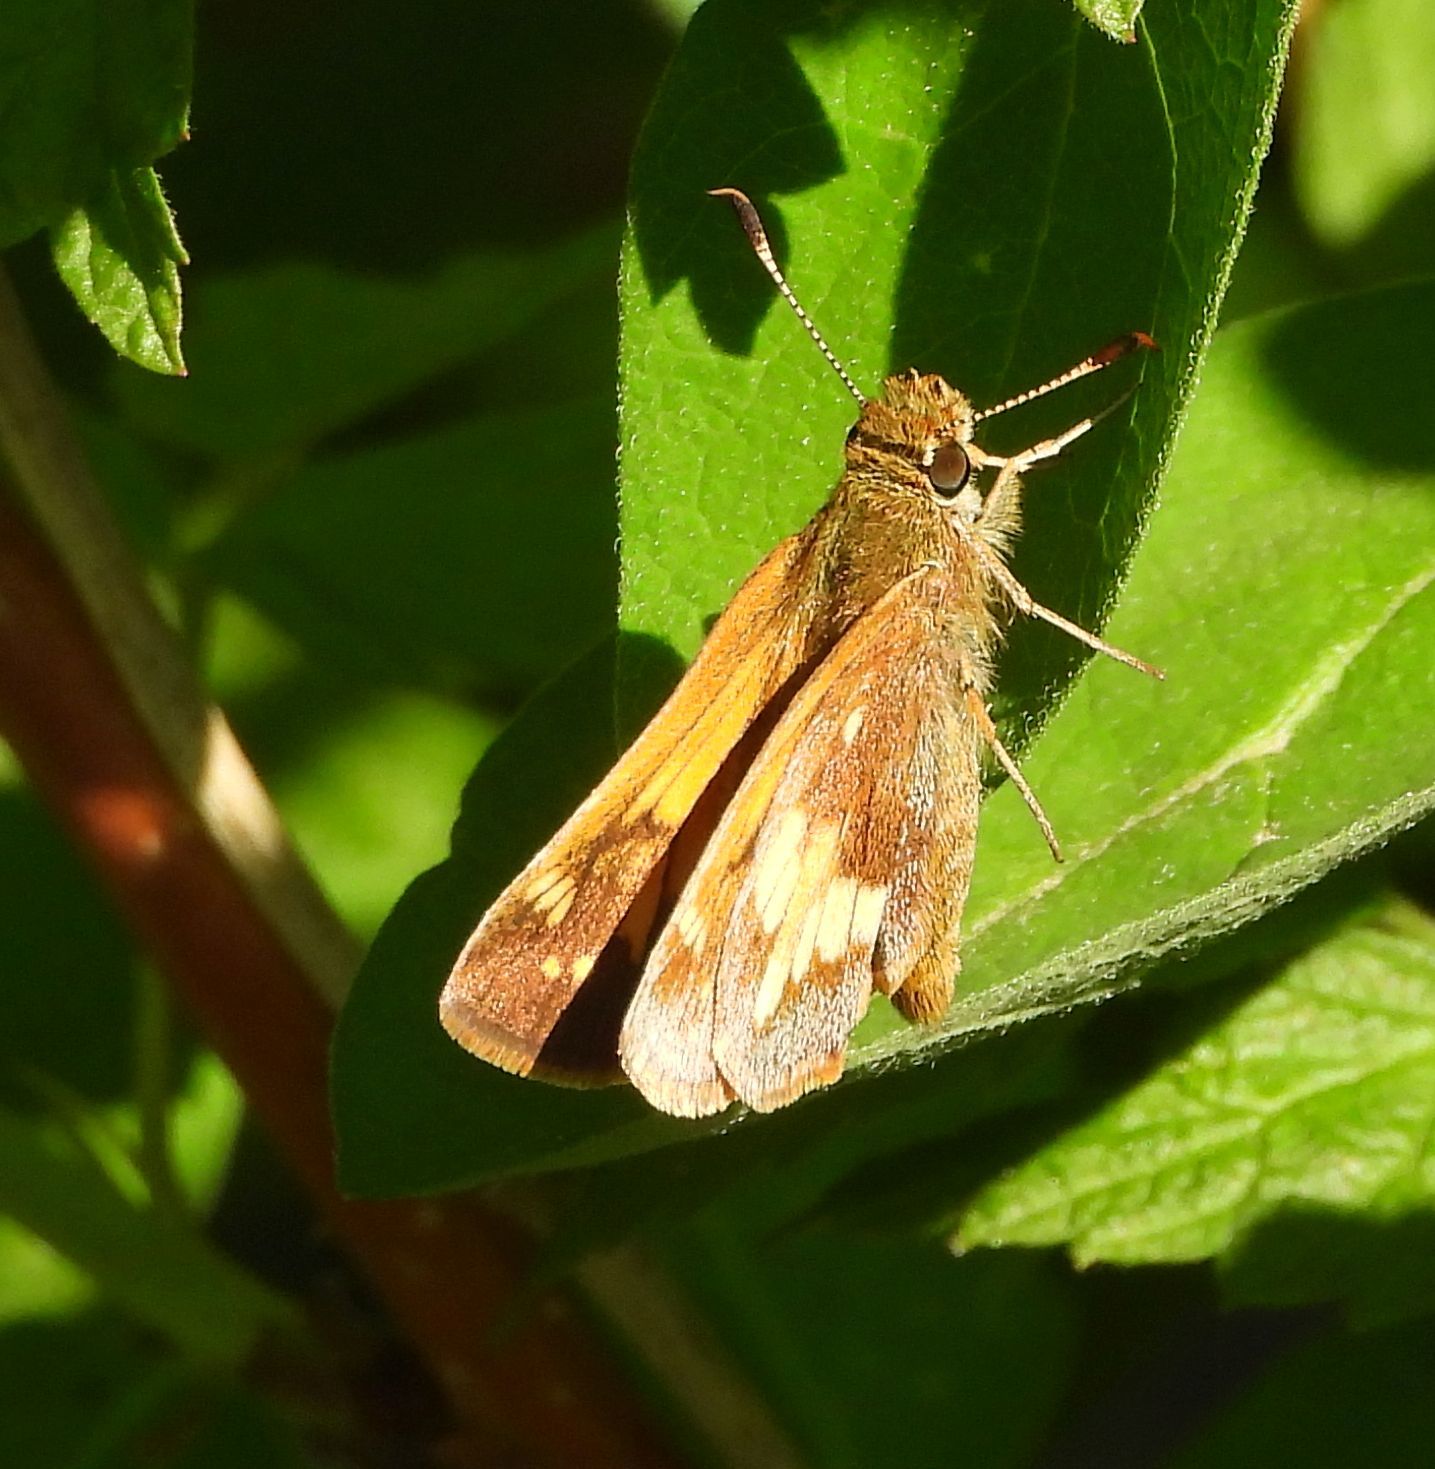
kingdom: Animalia
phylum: Arthropoda
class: Insecta
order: Lepidoptera
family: Hesperiidae
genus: Lon
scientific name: Lon hobomok
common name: Hobomok skipper
